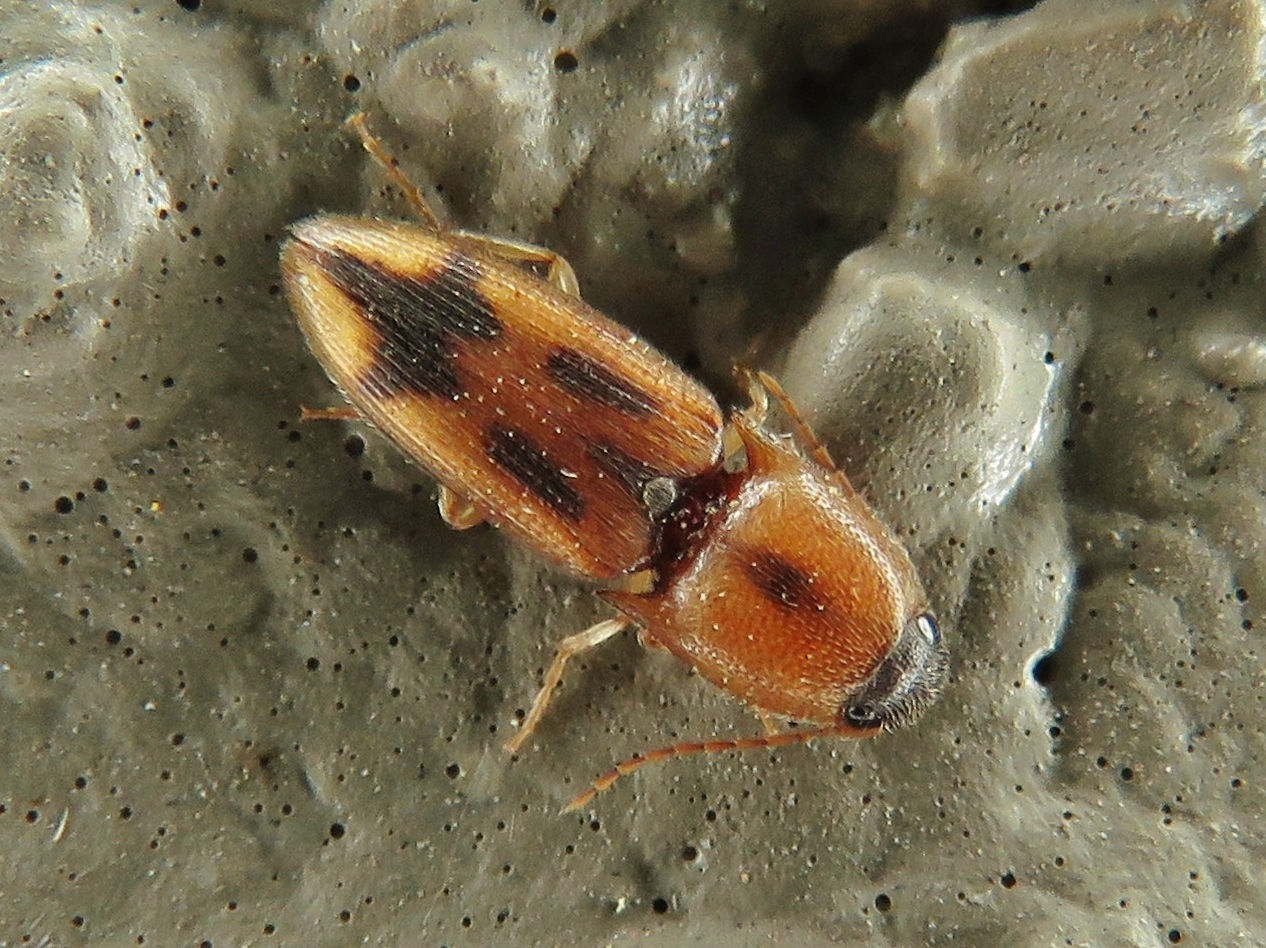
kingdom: Animalia
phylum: Arthropoda
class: Insecta
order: Coleoptera
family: Elateridae
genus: Aeolus
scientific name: Aeolus mellillus
